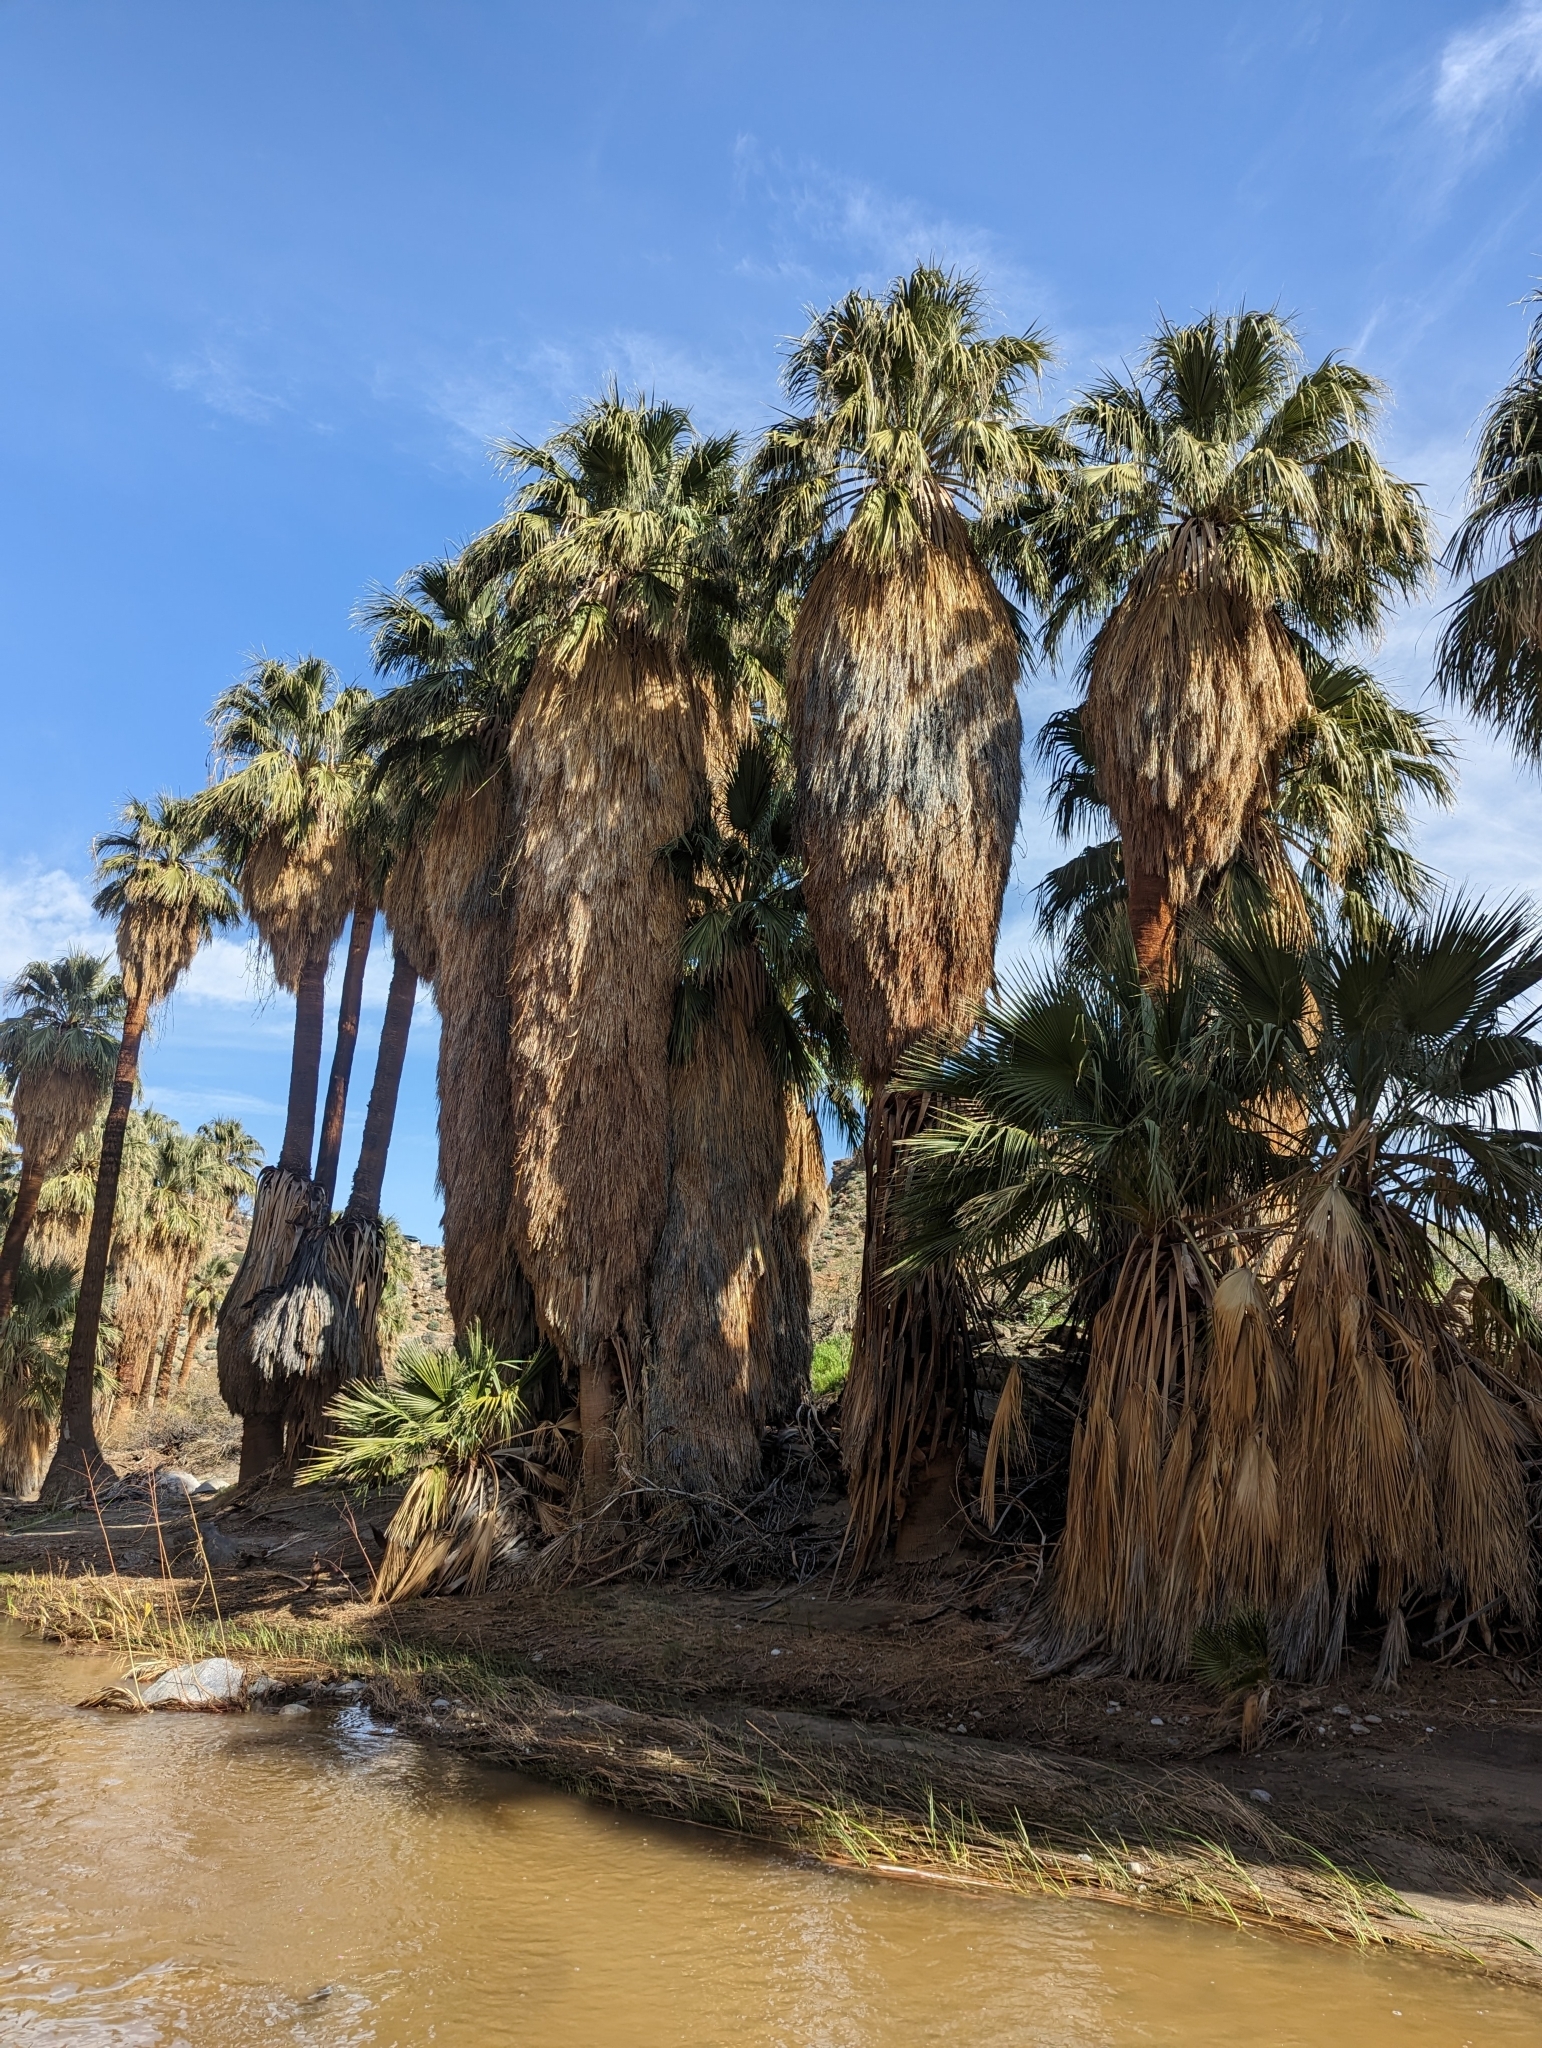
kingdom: Plantae
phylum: Tracheophyta
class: Liliopsida
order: Arecales
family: Arecaceae
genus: Washingtonia
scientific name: Washingtonia filifera
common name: California fan palm
